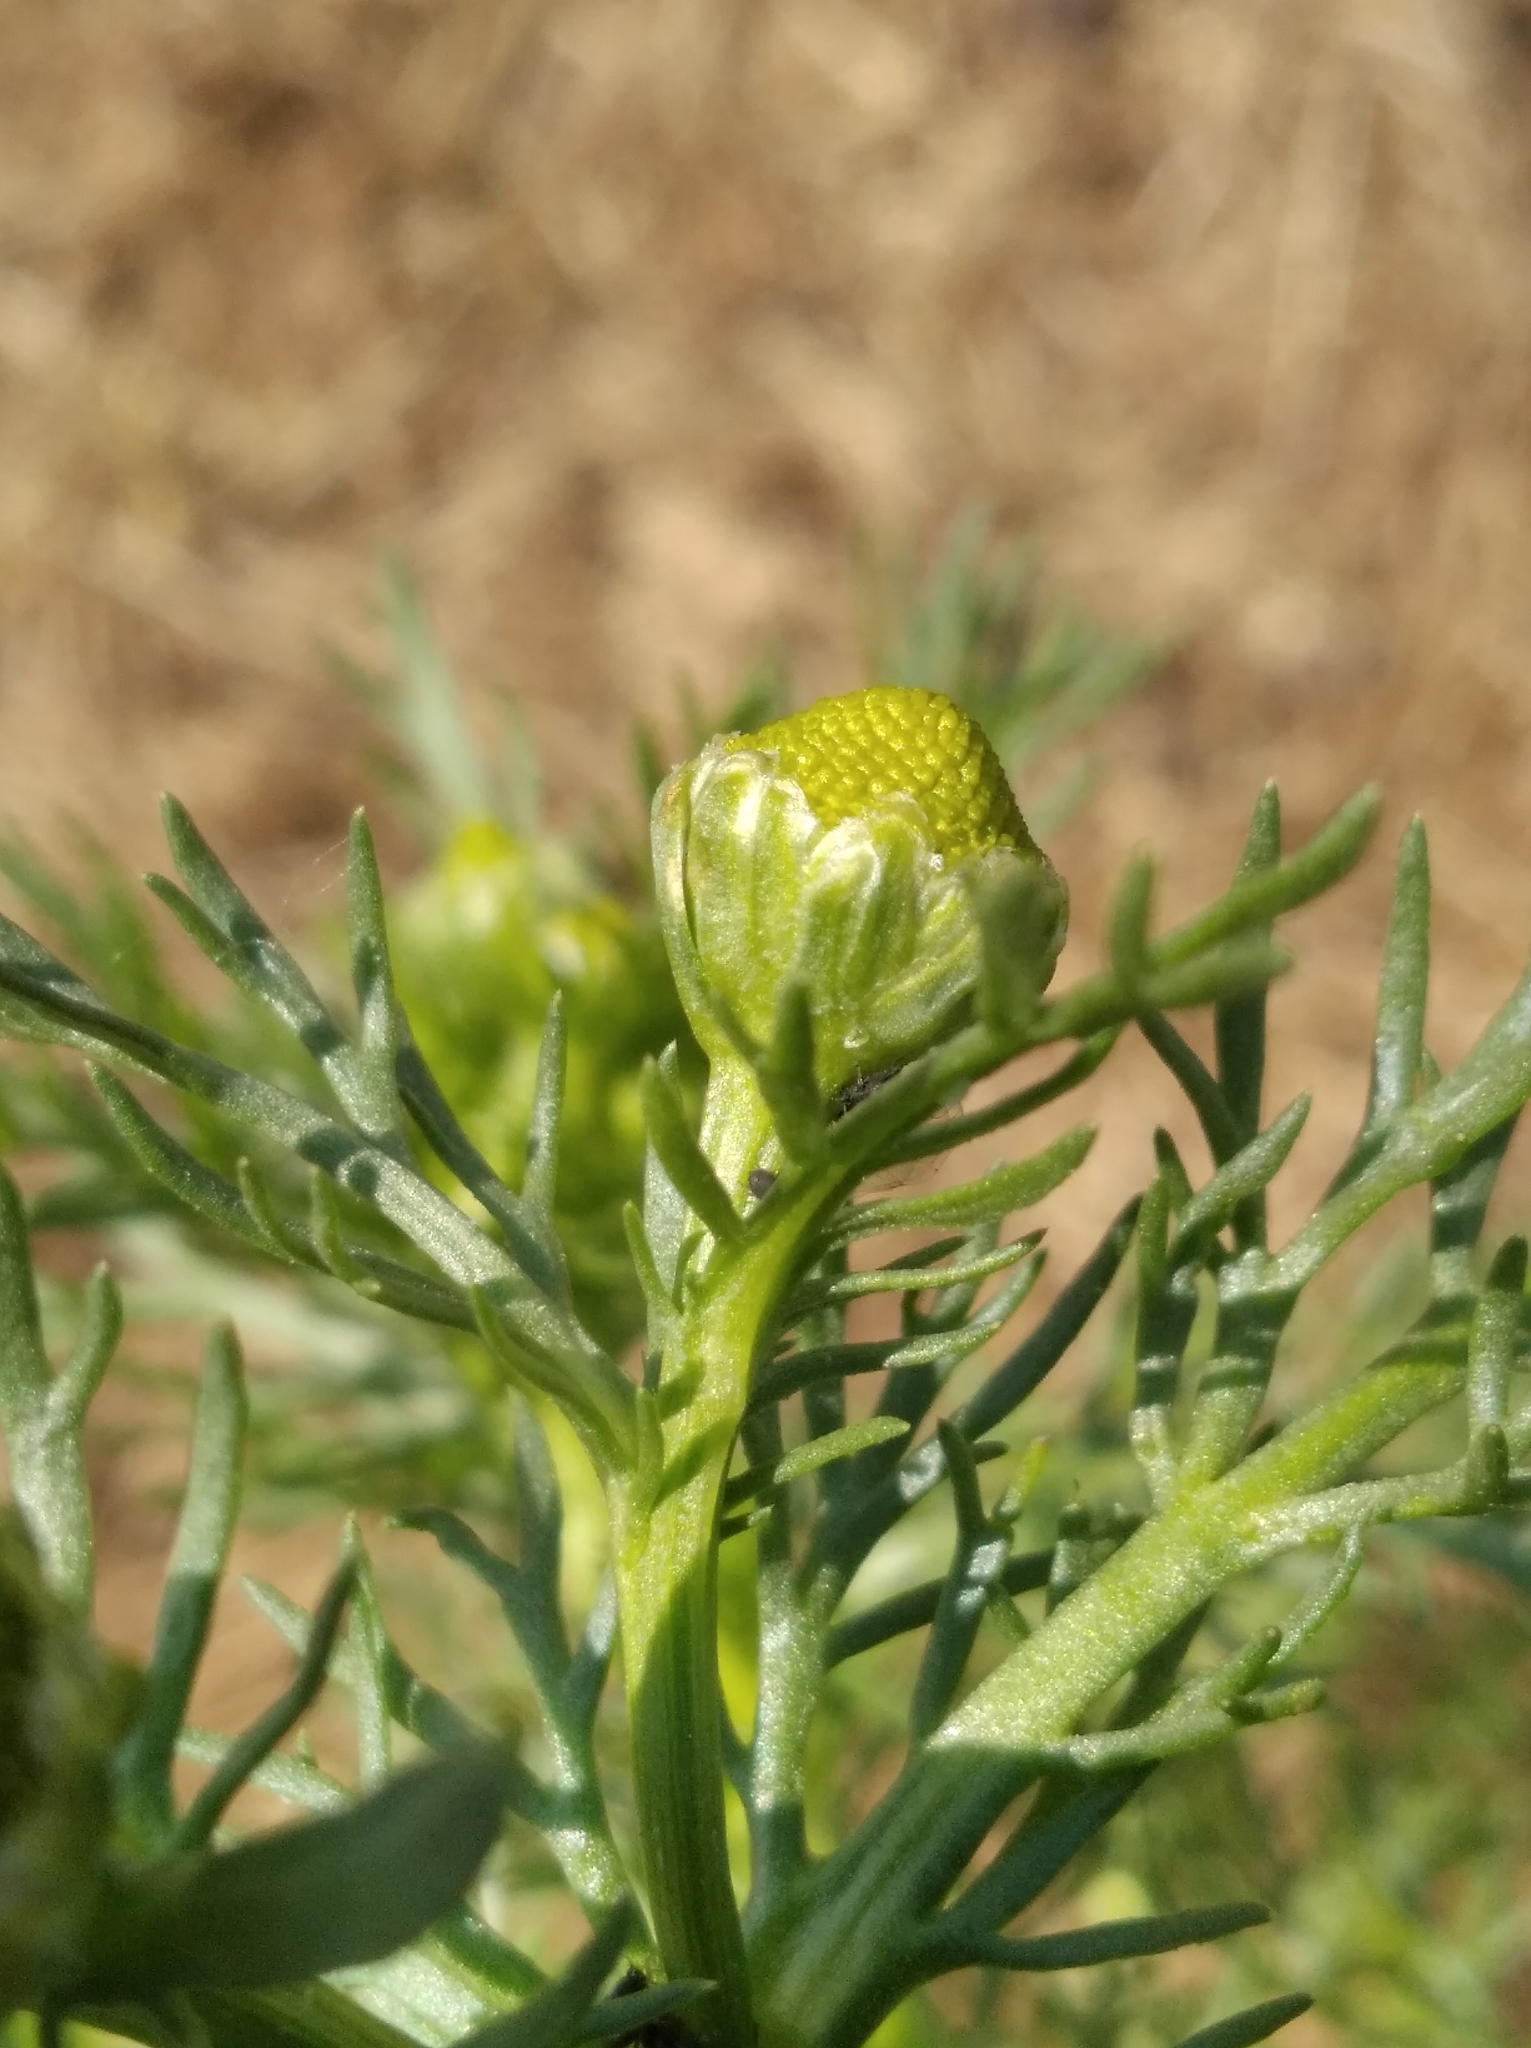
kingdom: Plantae
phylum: Tracheophyta
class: Magnoliopsida
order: Asterales
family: Asteraceae
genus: Matricaria
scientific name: Matricaria discoidea
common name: Disc mayweed
